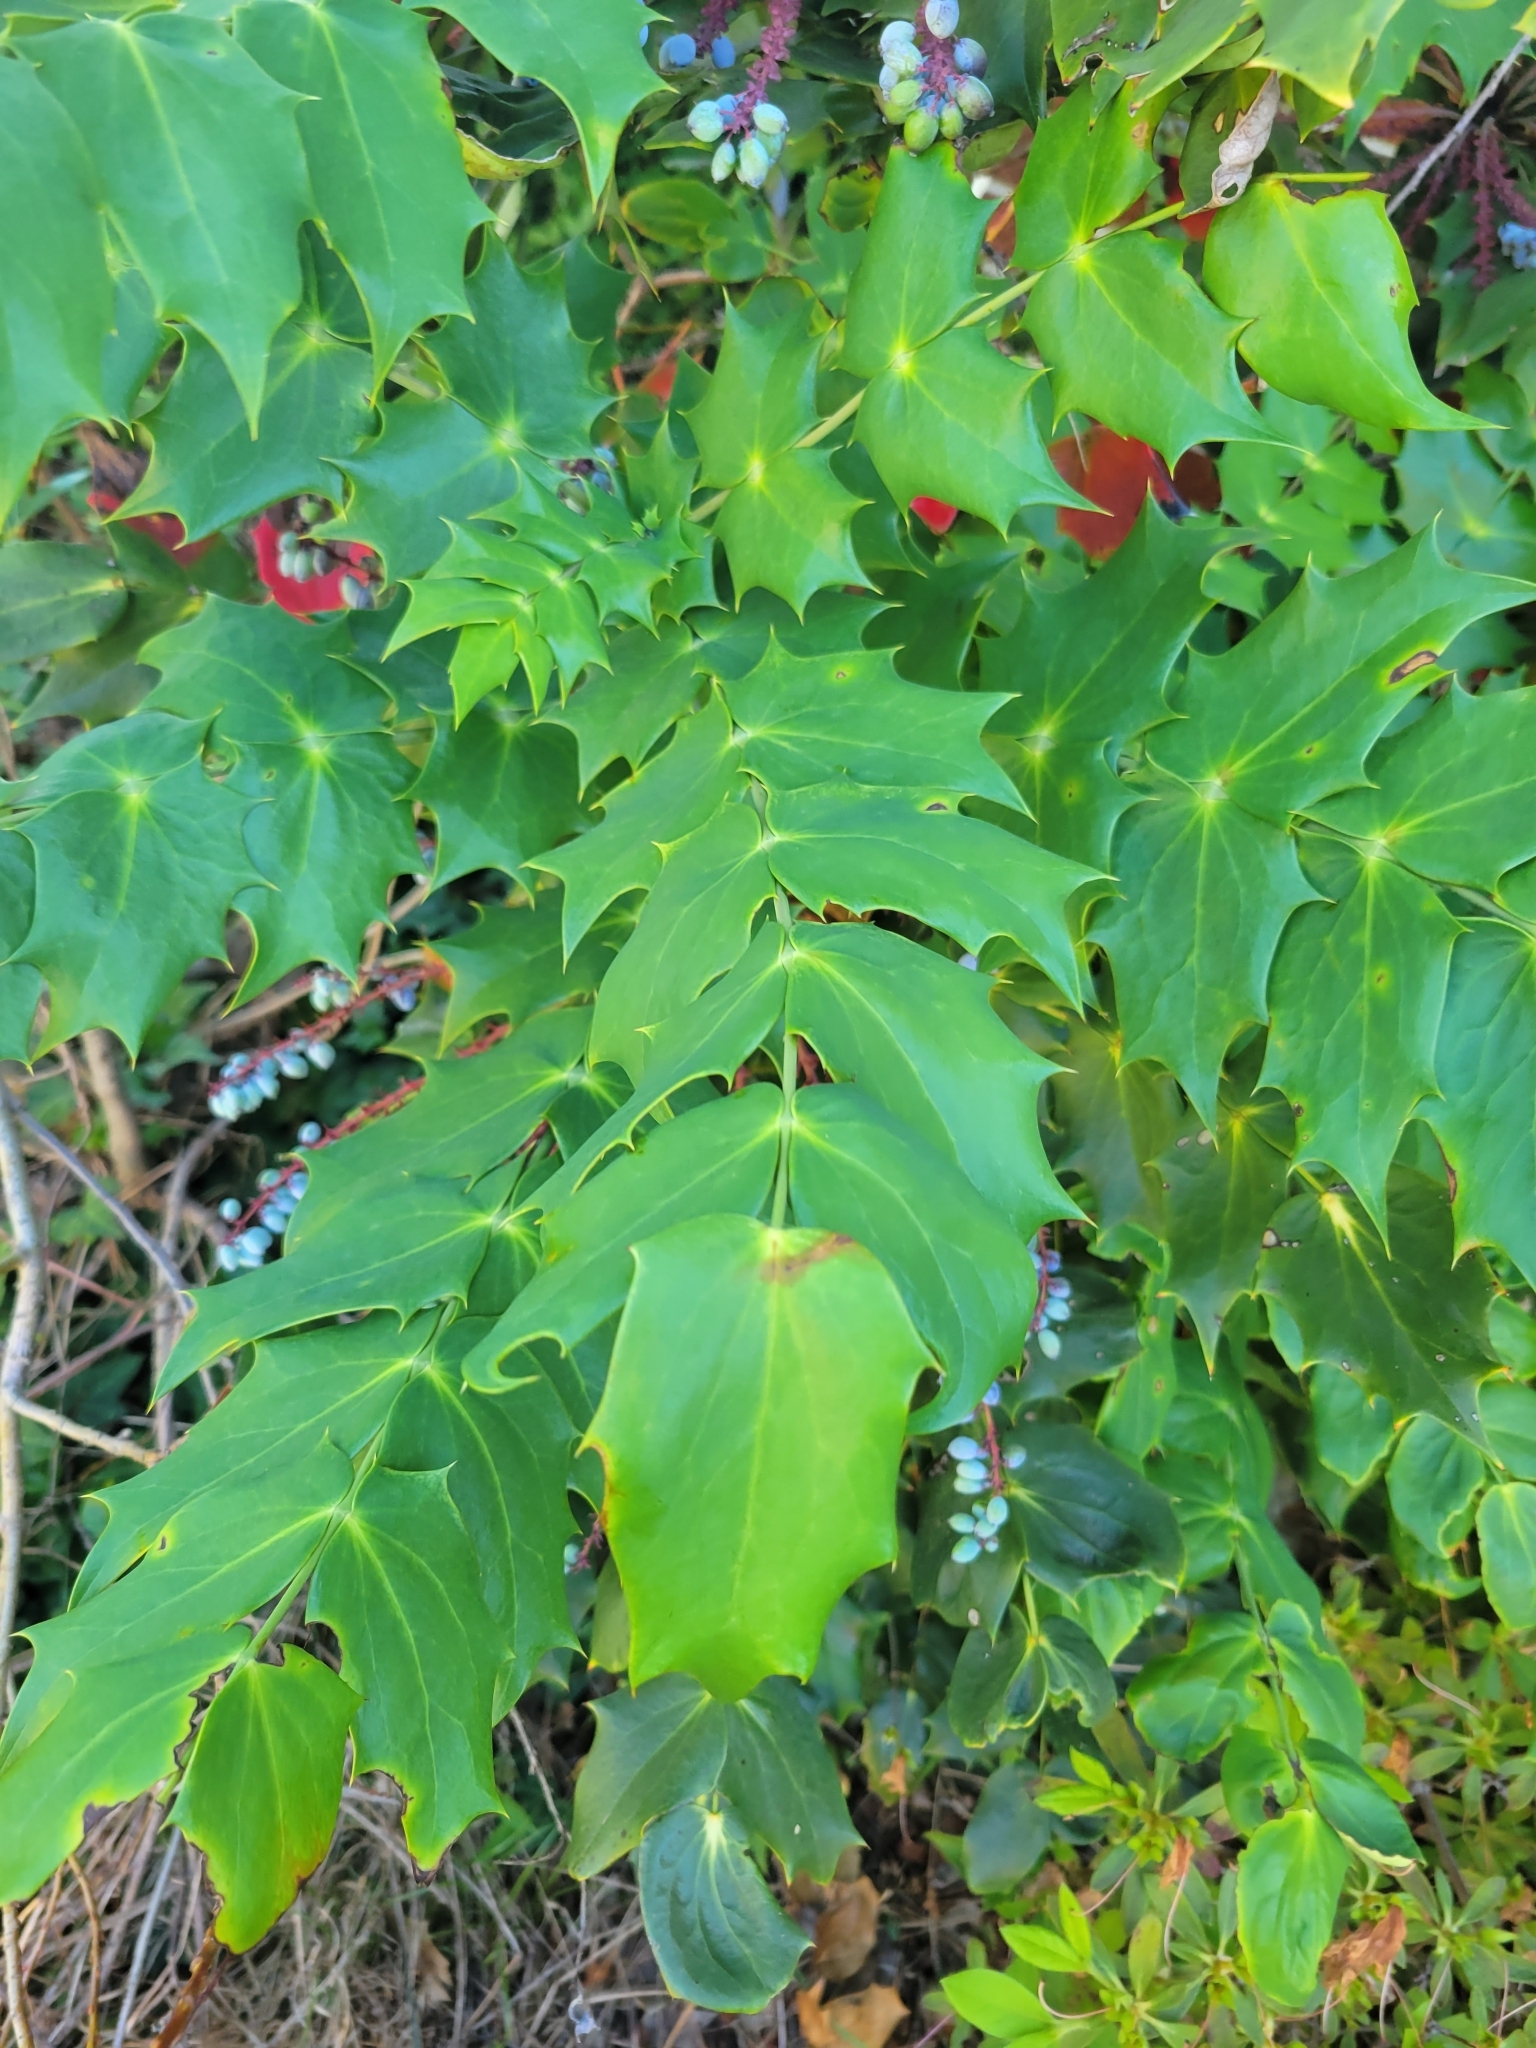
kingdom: Plantae
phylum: Tracheophyta
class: Magnoliopsida
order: Ranunculales
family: Berberidaceae
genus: Mahonia
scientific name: Mahonia bealei
